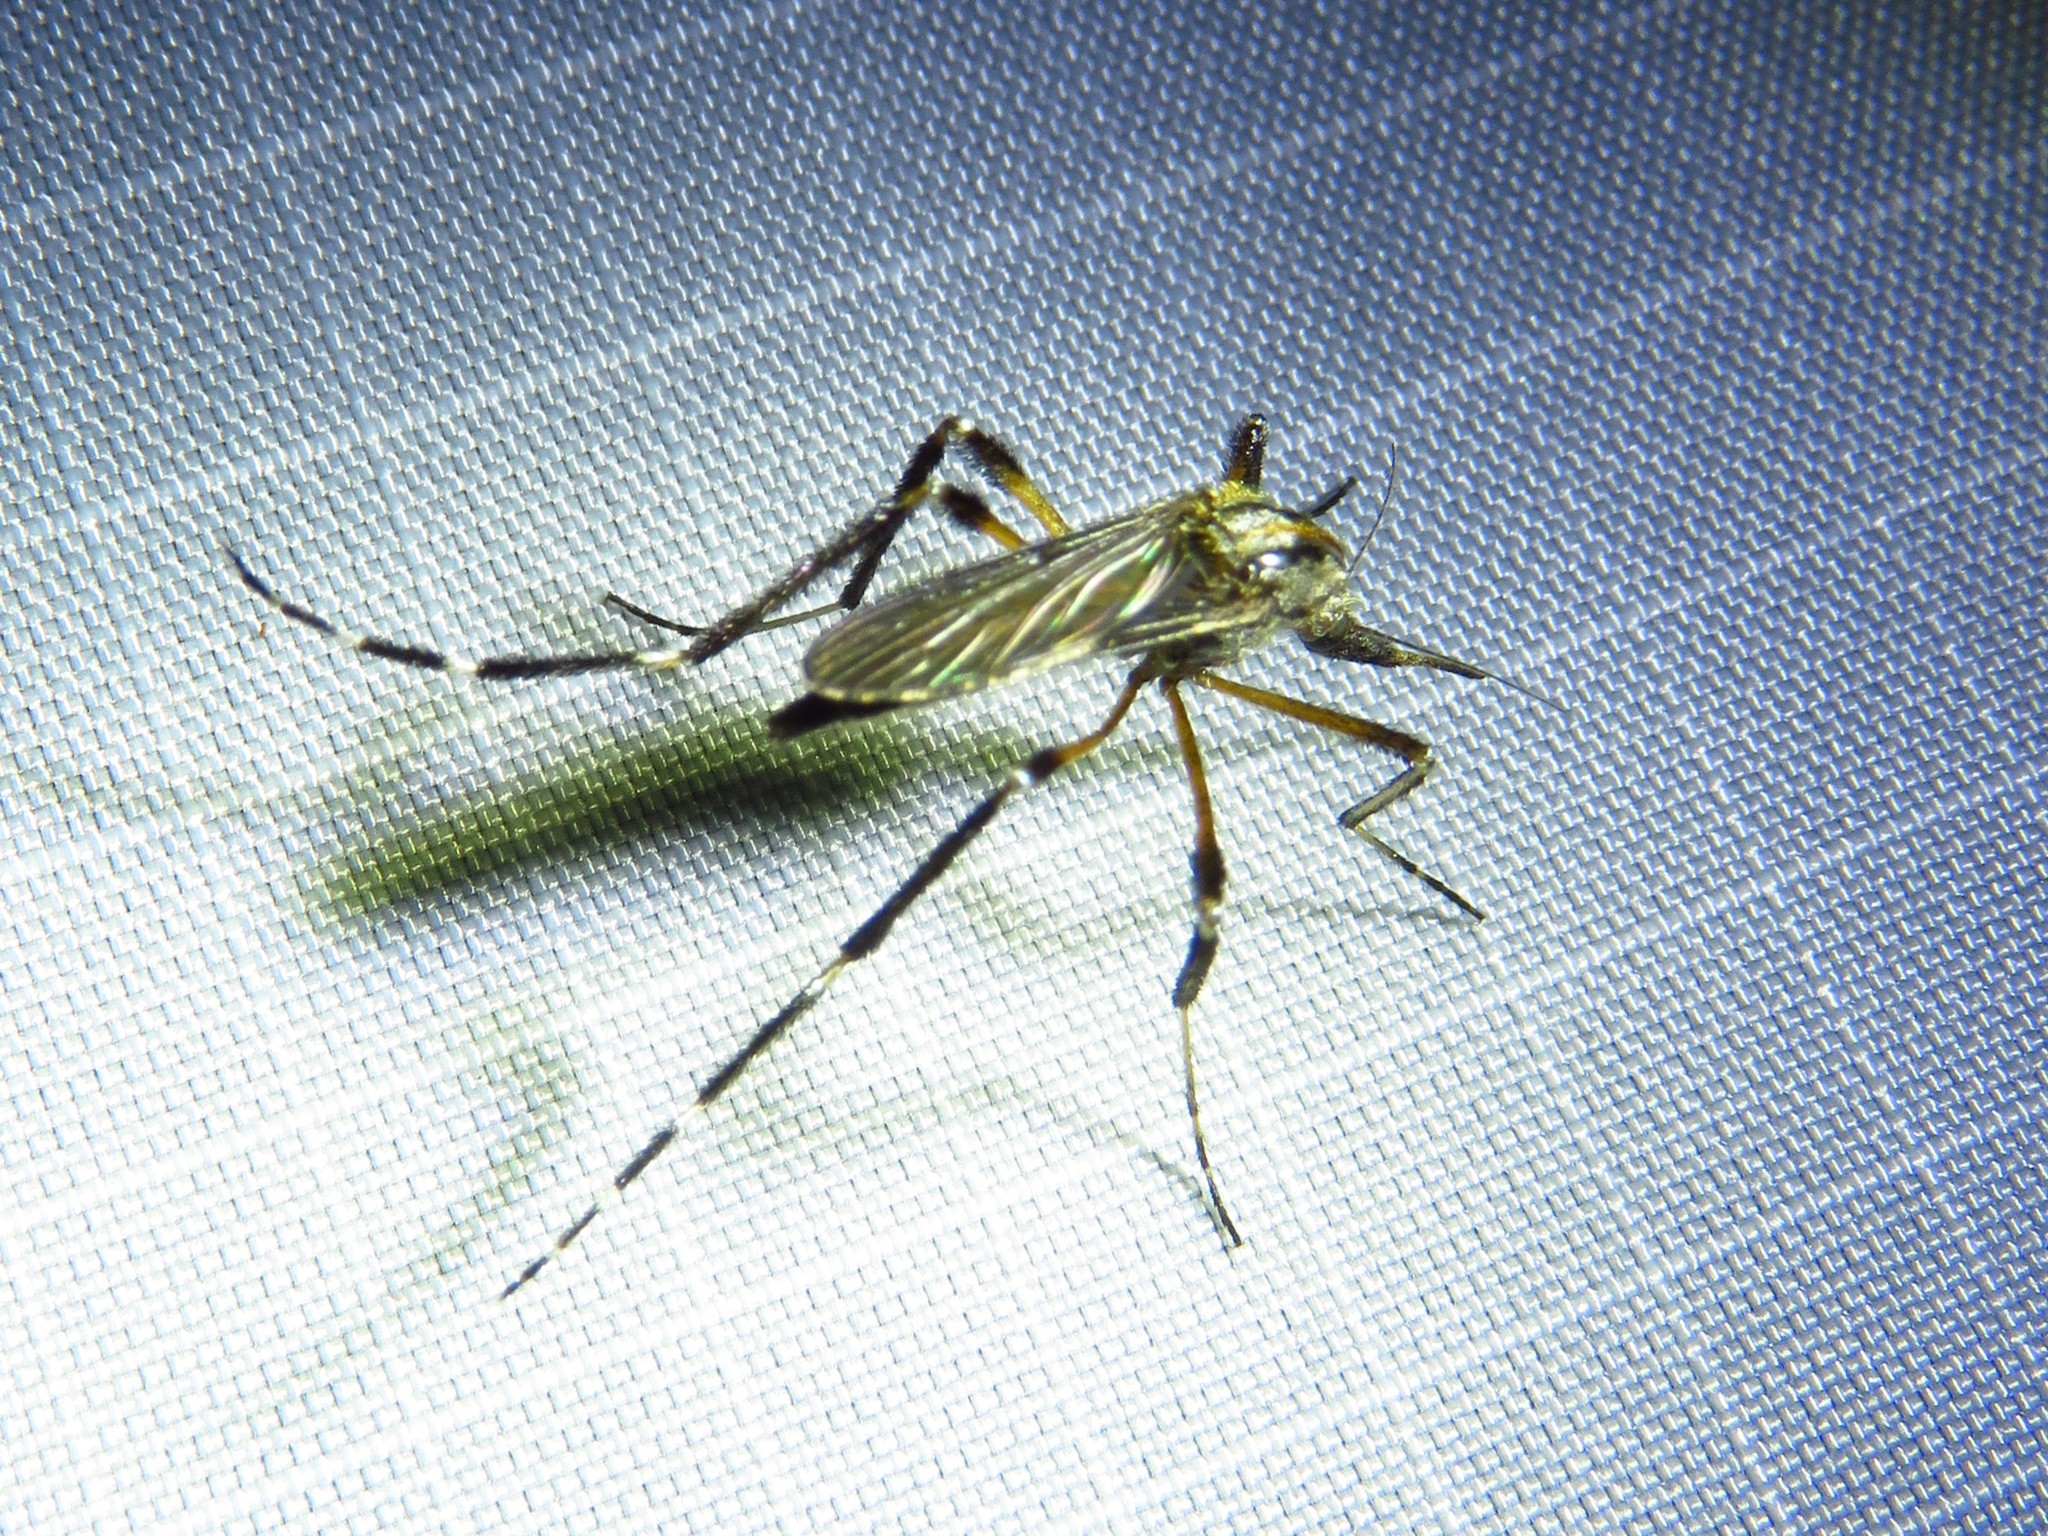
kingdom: Animalia
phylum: Arthropoda
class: Insecta
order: Diptera
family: Culicidae
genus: Psorophora
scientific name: Psorophora ciliata
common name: Gallinipper
